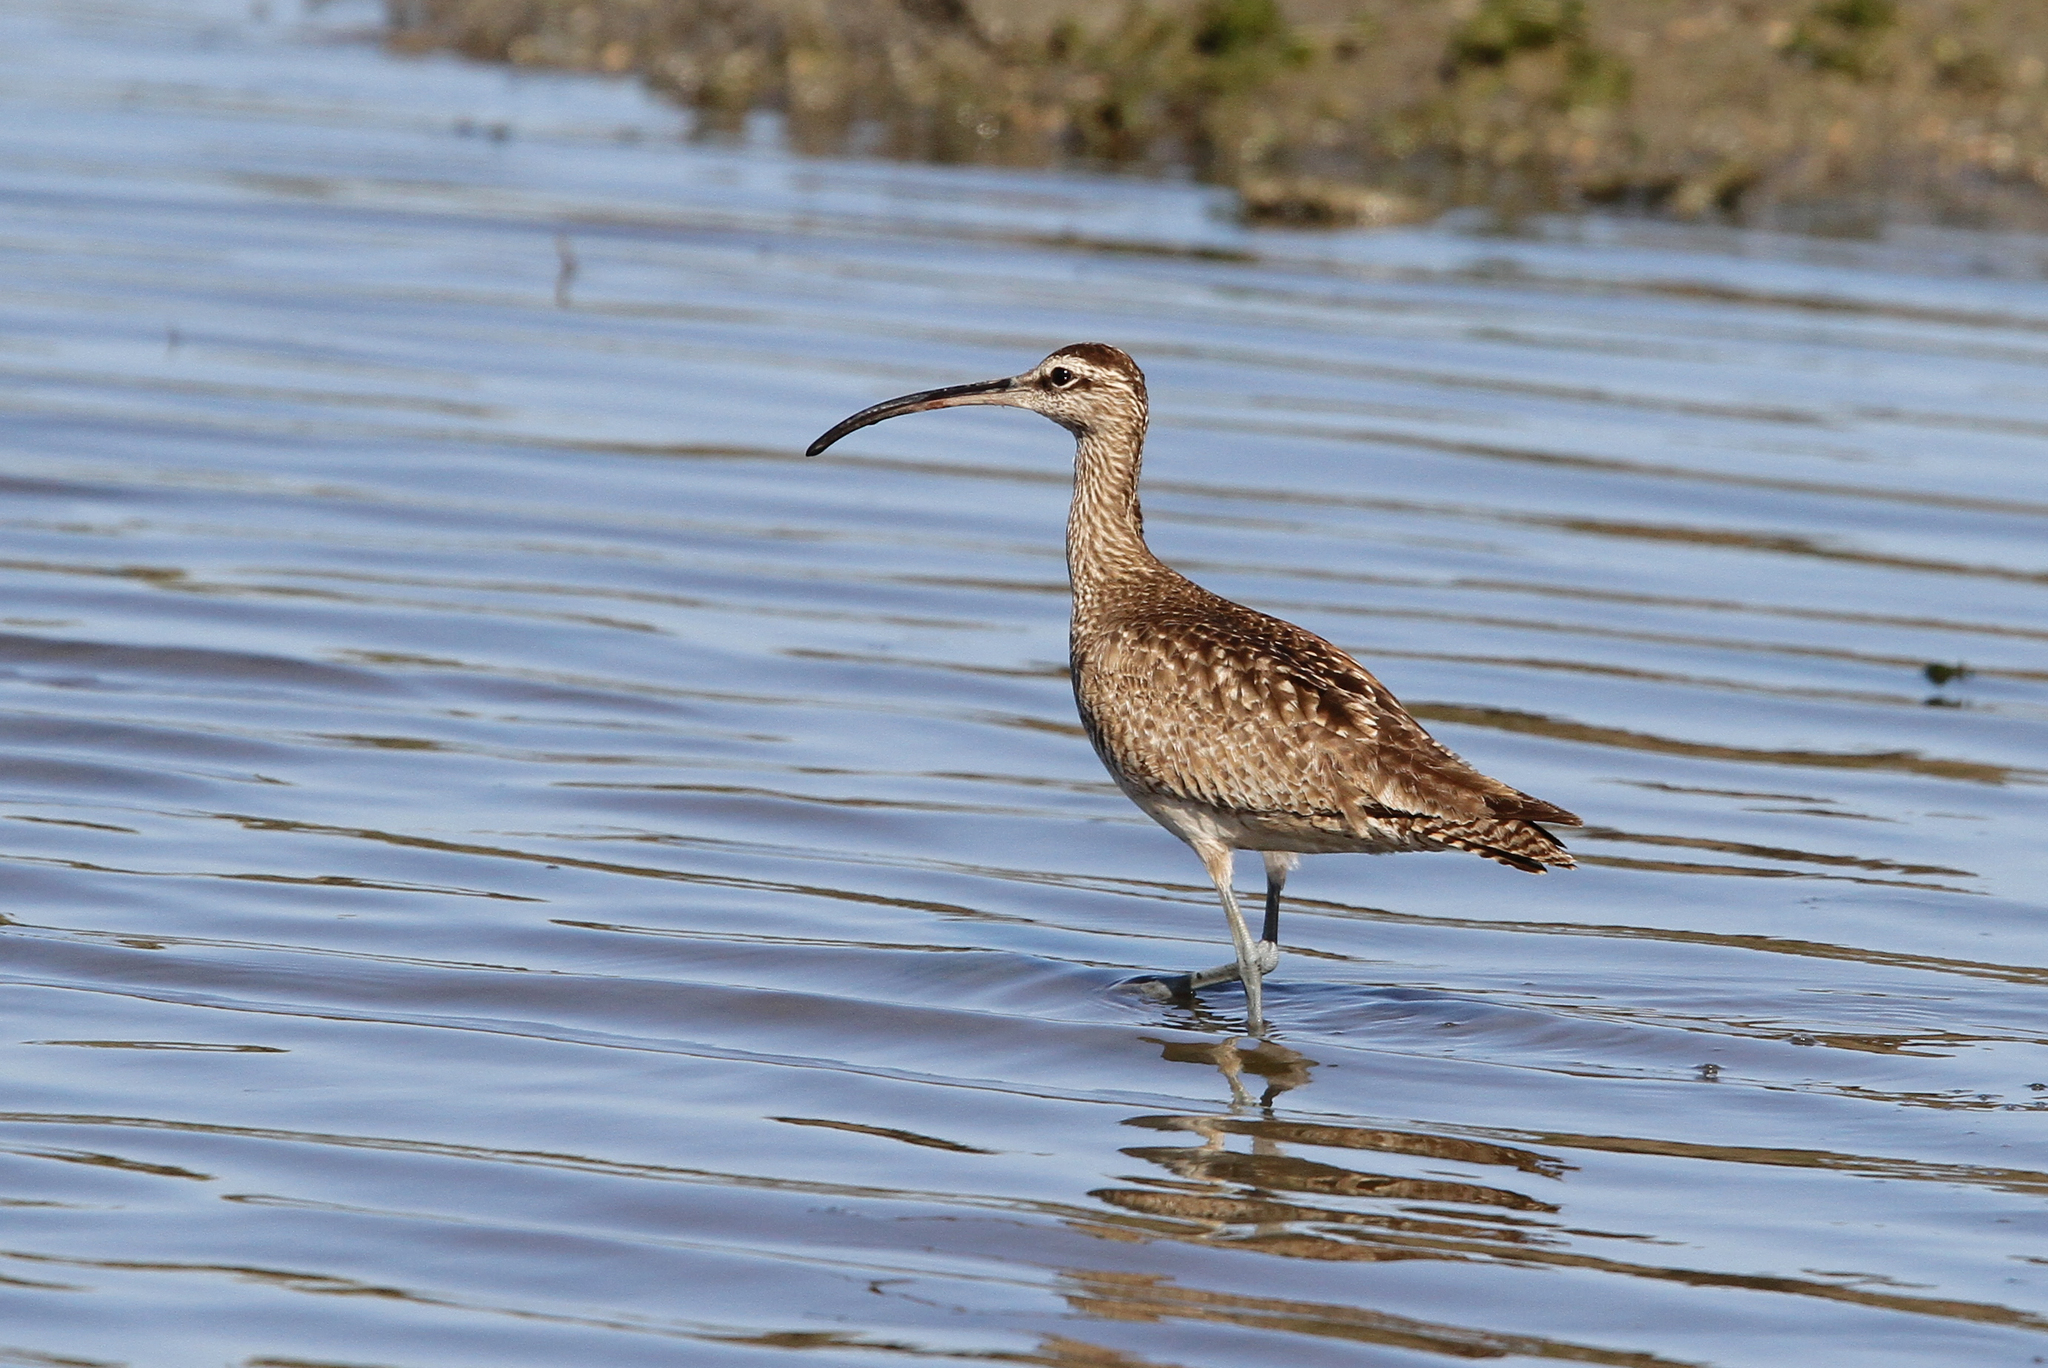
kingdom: Animalia
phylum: Chordata
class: Aves
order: Charadriiformes
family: Scolopacidae
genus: Numenius
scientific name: Numenius phaeopus
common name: Whimbrel
